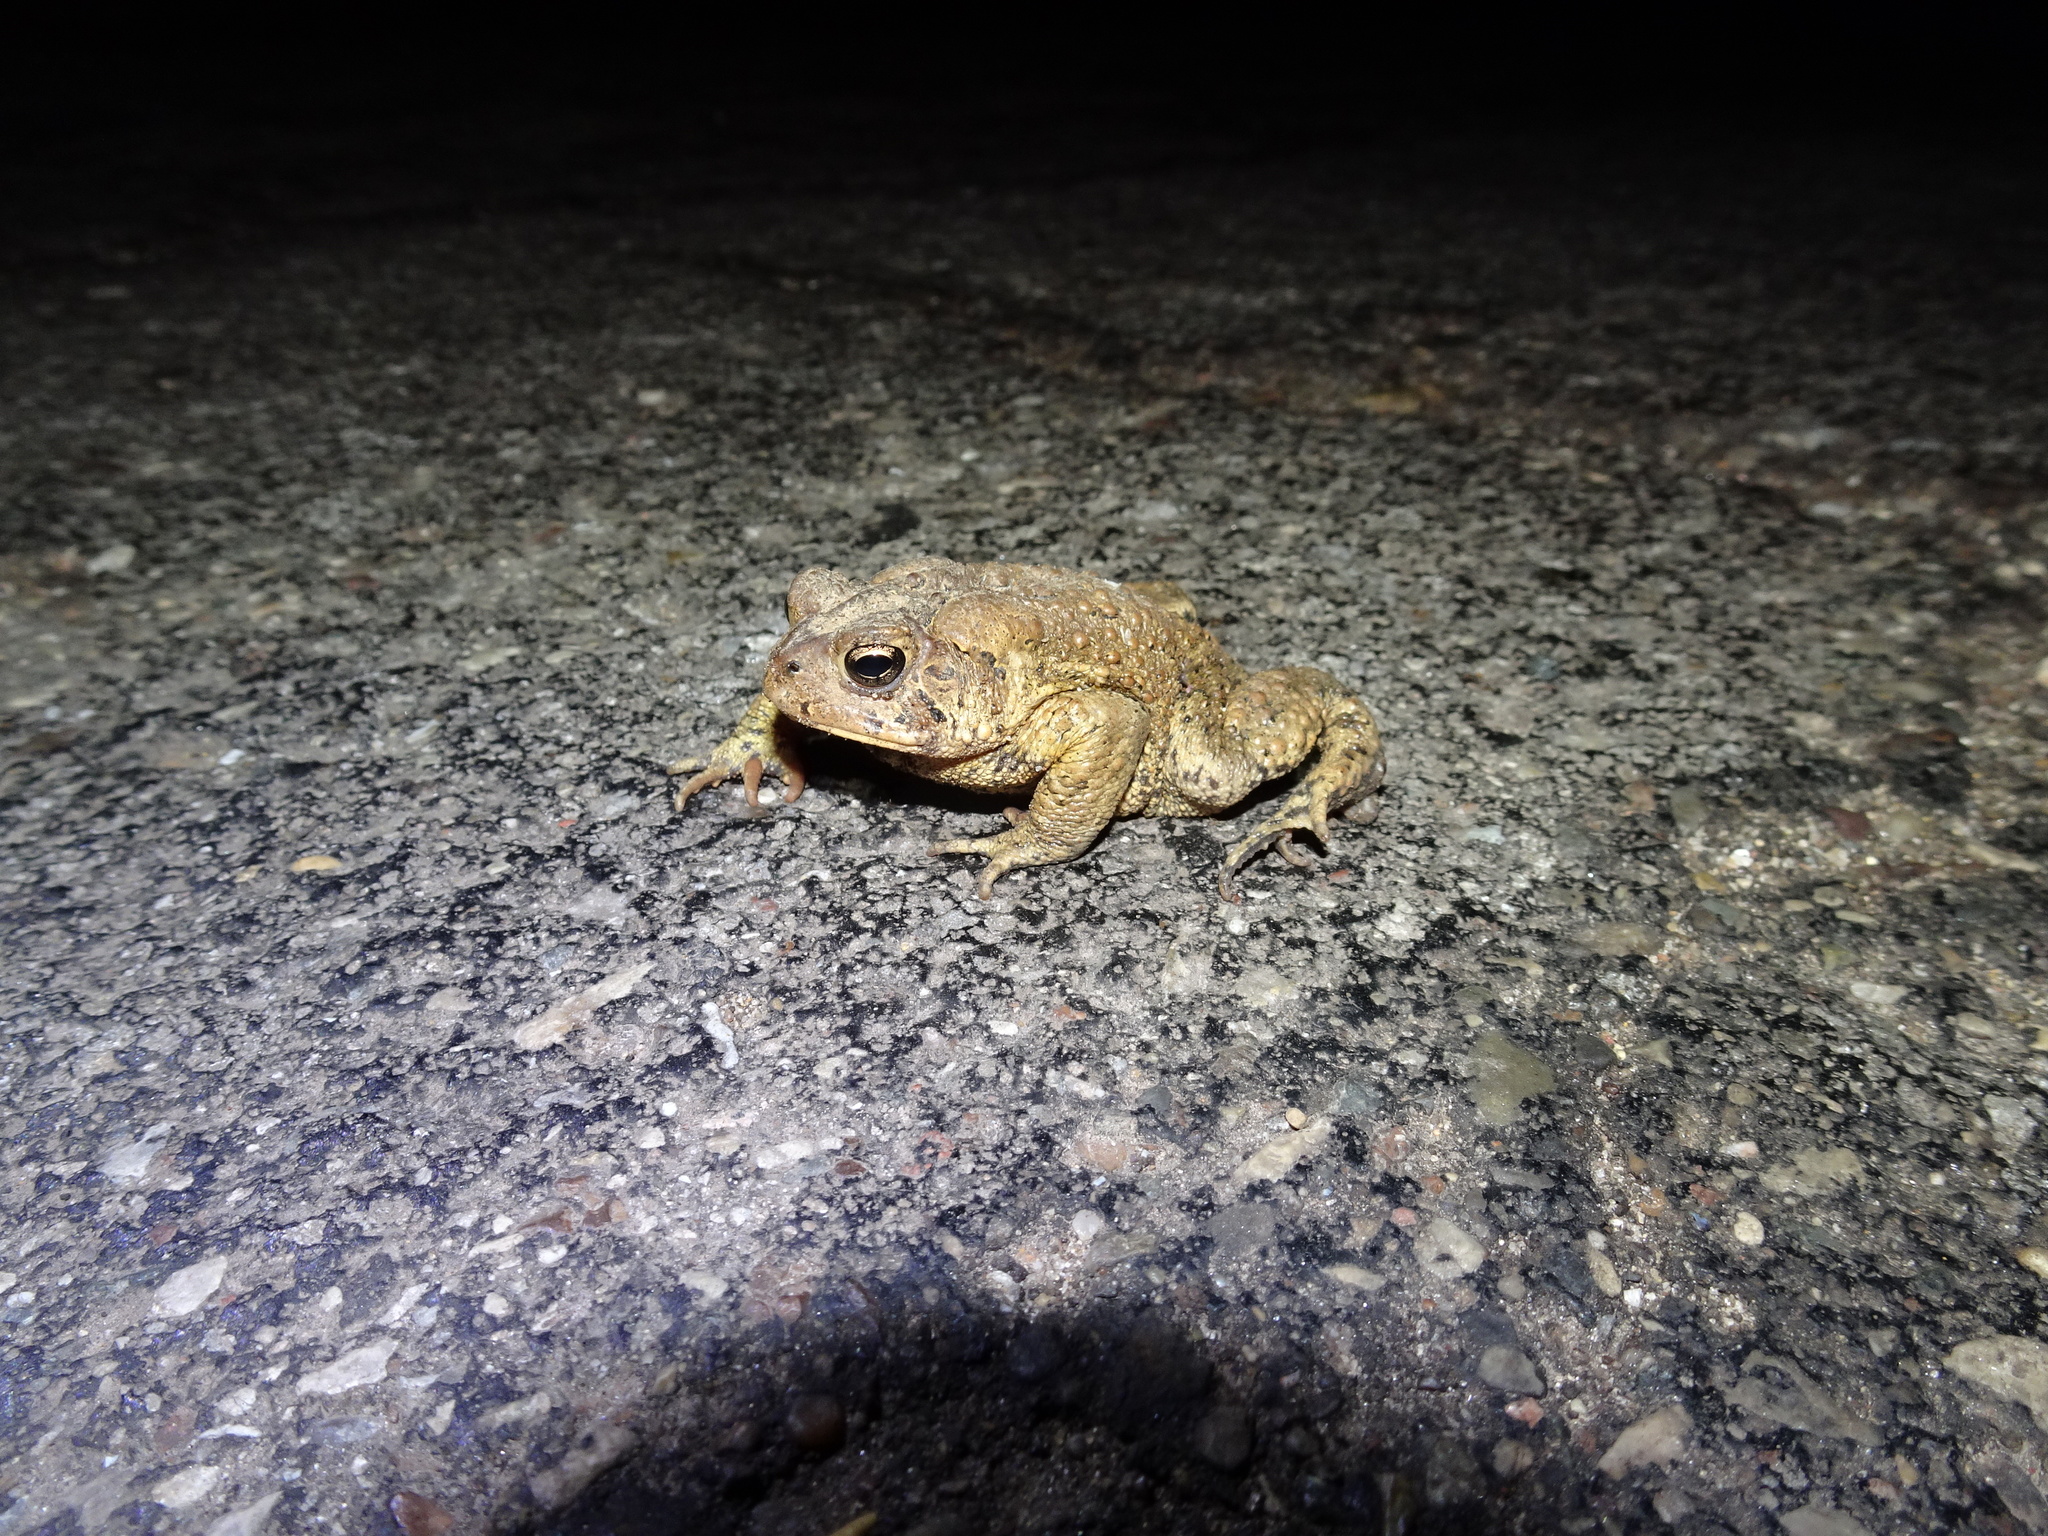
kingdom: Animalia
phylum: Chordata
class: Amphibia
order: Anura
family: Bufonidae
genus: Anaxyrus
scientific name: Anaxyrus americanus
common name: American toad
